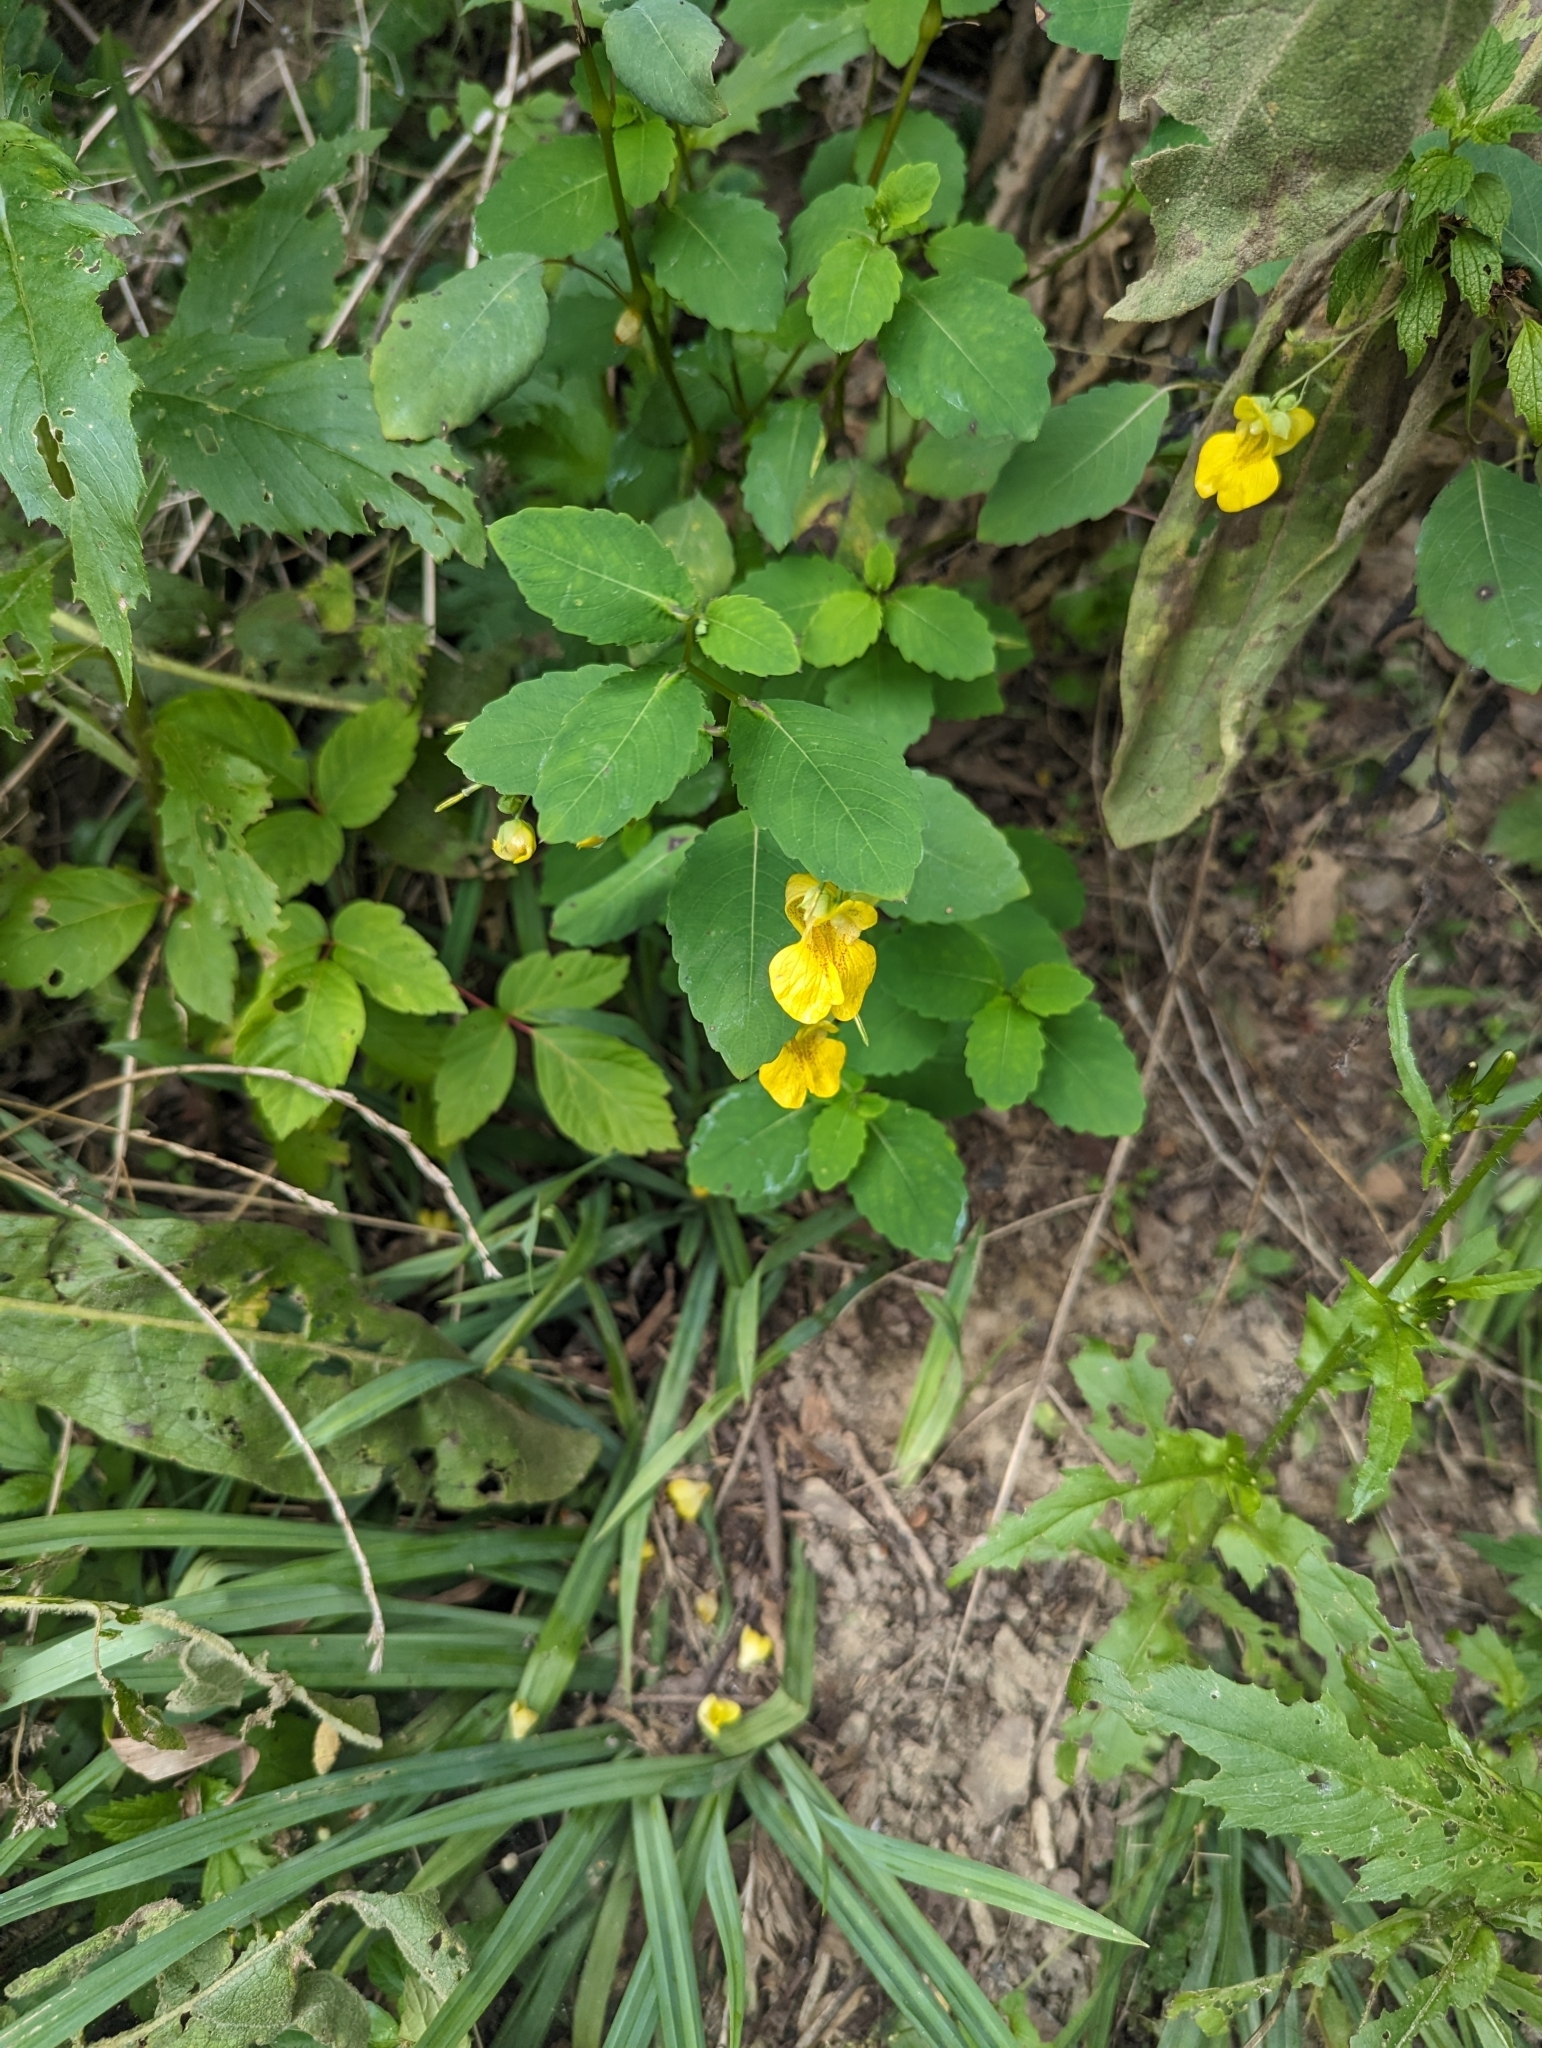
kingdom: Plantae
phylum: Tracheophyta
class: Magnoliopsida
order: Ericales
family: Balsaminaceae
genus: Impatiens
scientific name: Impatiens pallida
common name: Pale snapweed
